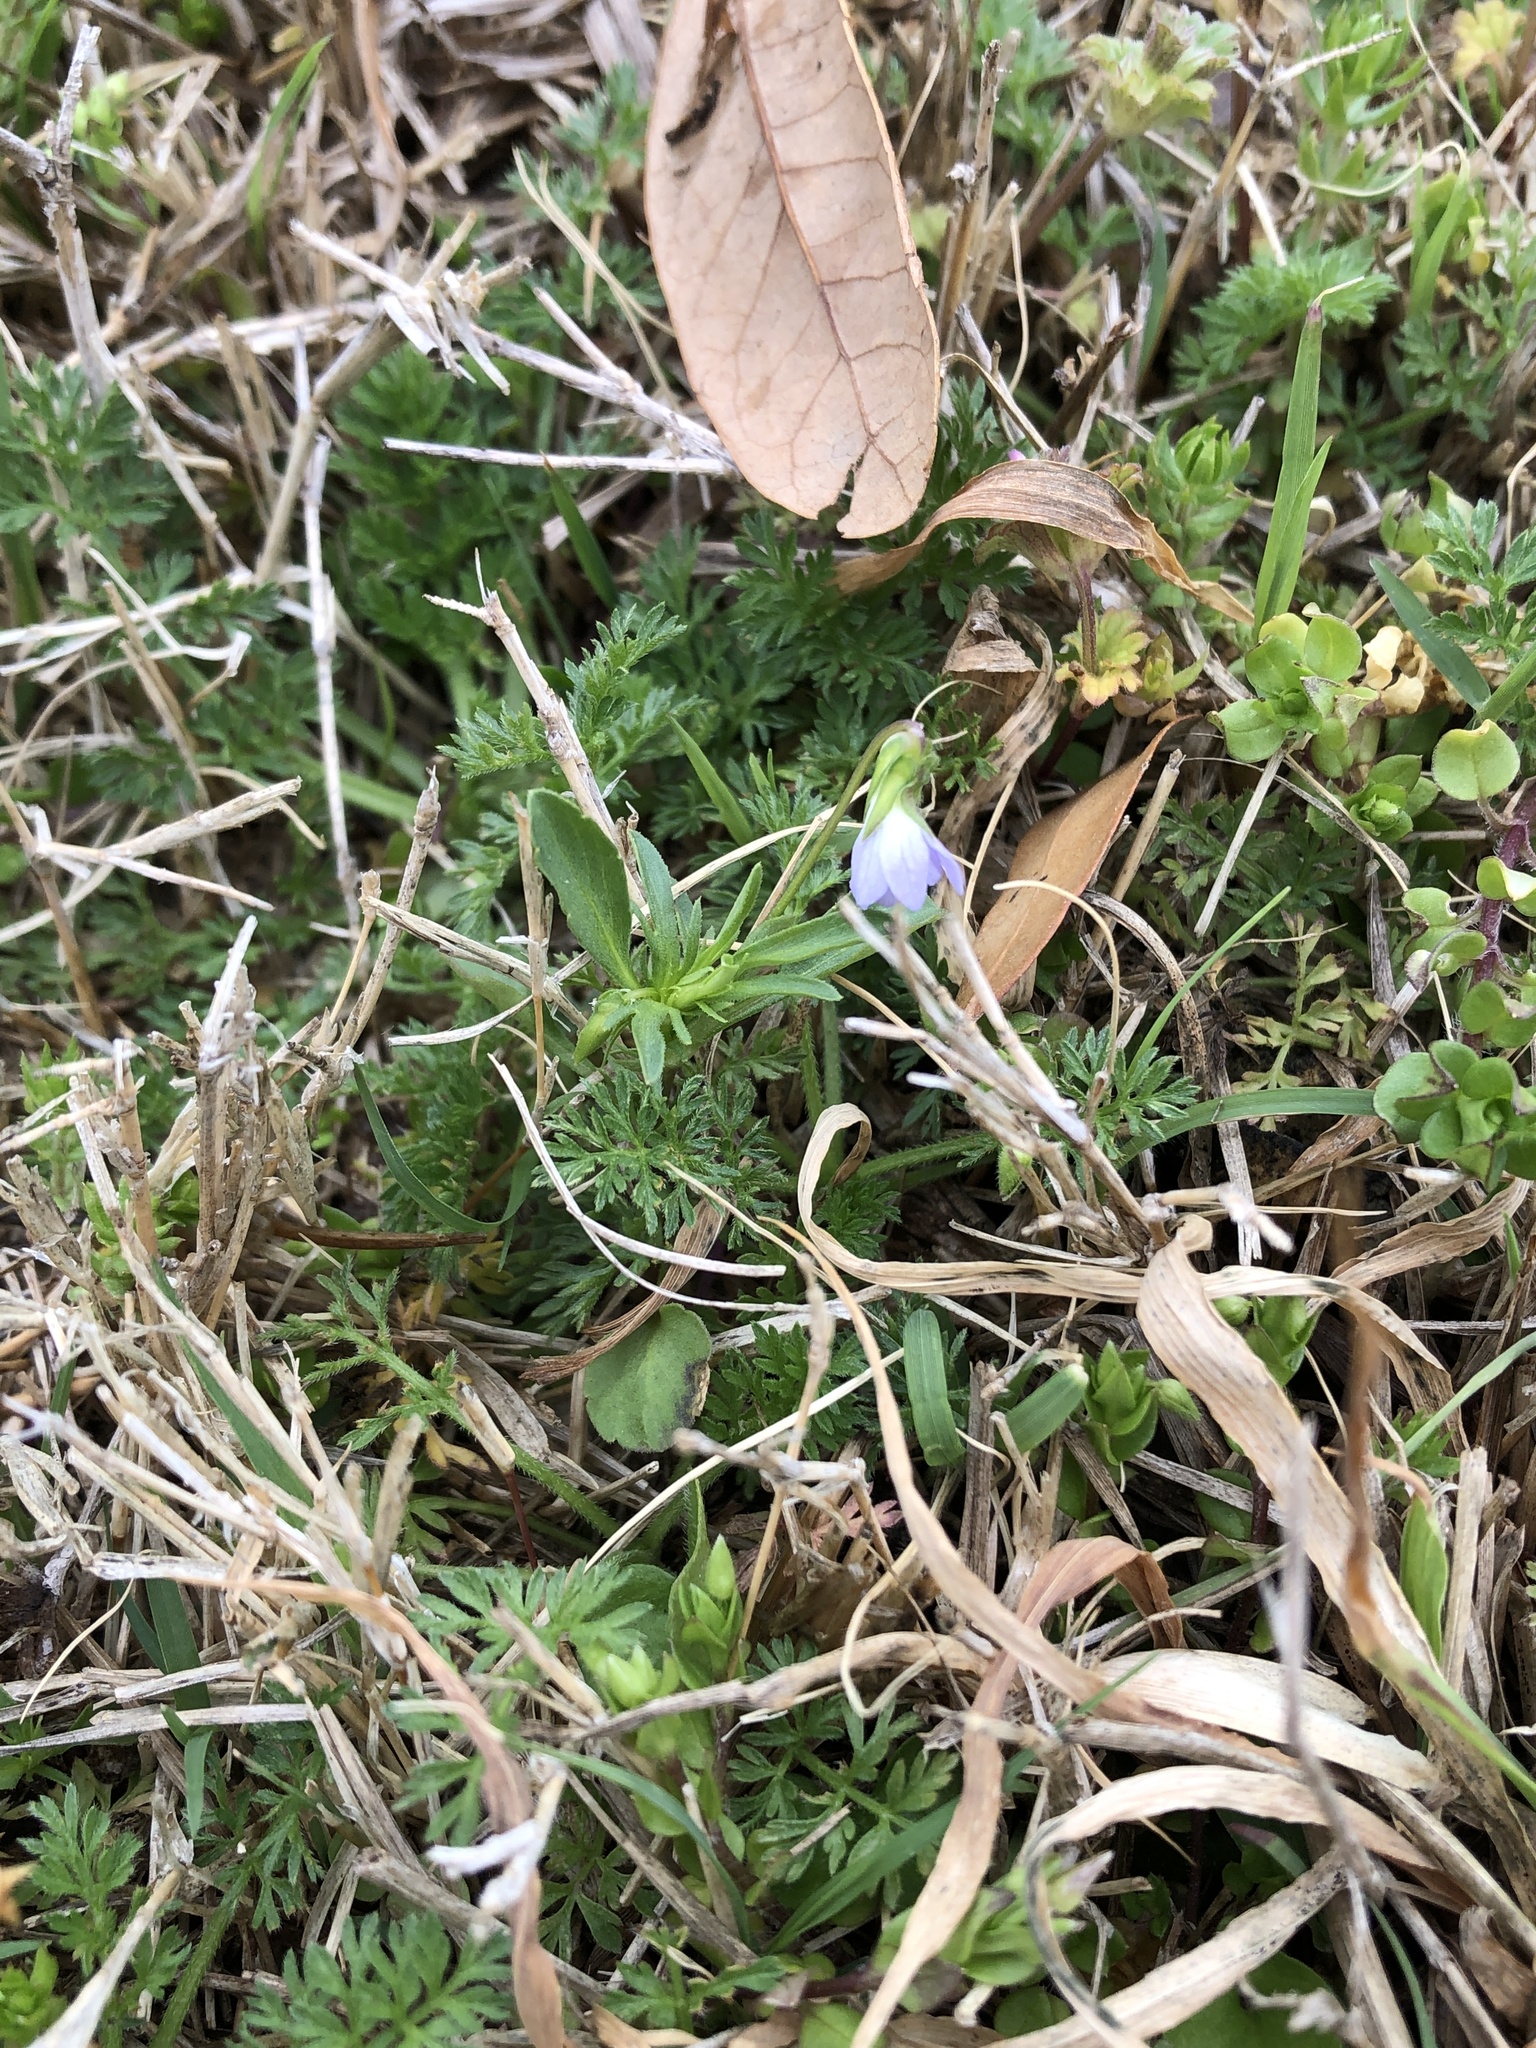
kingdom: Plantae
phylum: Tracheophyta
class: Magnoliopsida
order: Malpighiales
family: Violaceae
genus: Viola
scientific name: Viola rafinesquei
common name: American field pansy
